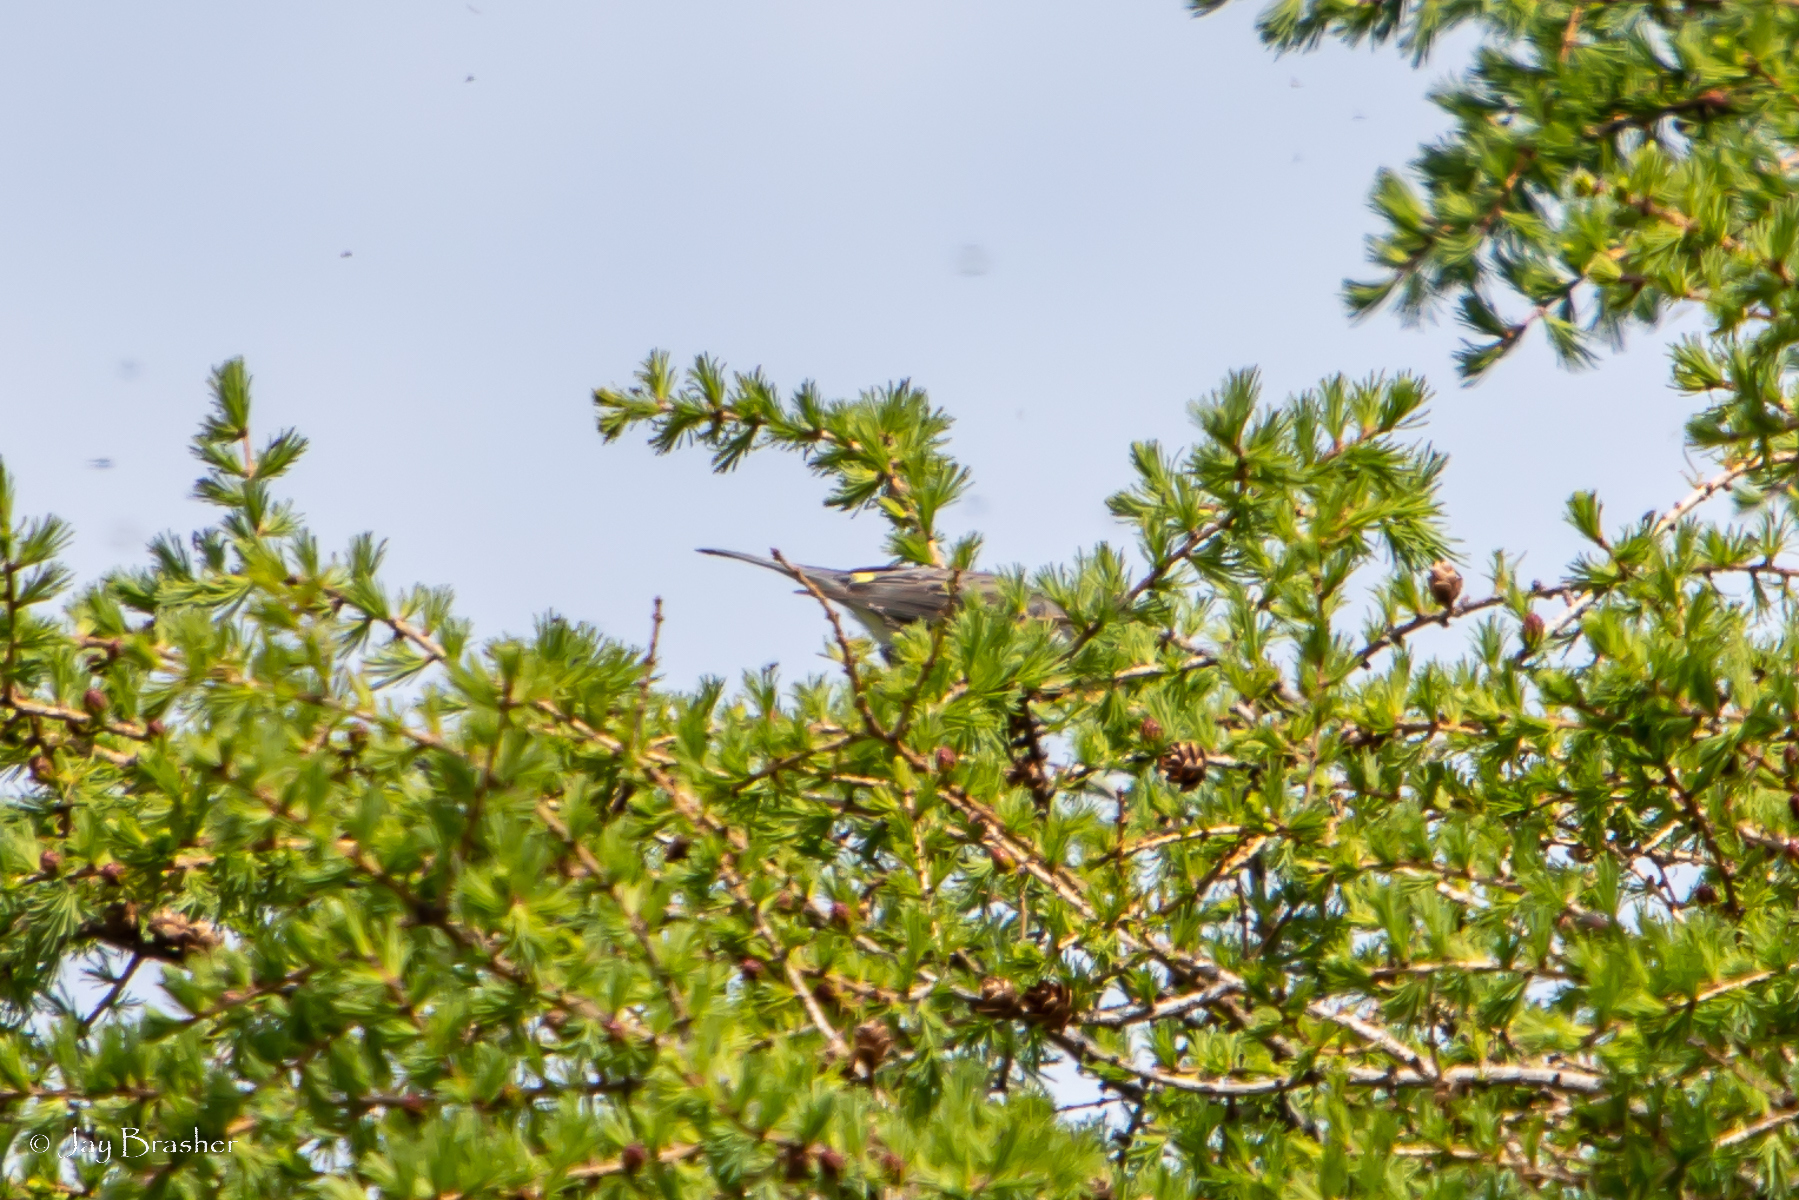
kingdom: Animalia
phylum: Chordata
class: Aves
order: Passeriformes
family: Parulidae
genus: Setophaga
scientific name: Setophaga coronata
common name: Myrtle warbler
